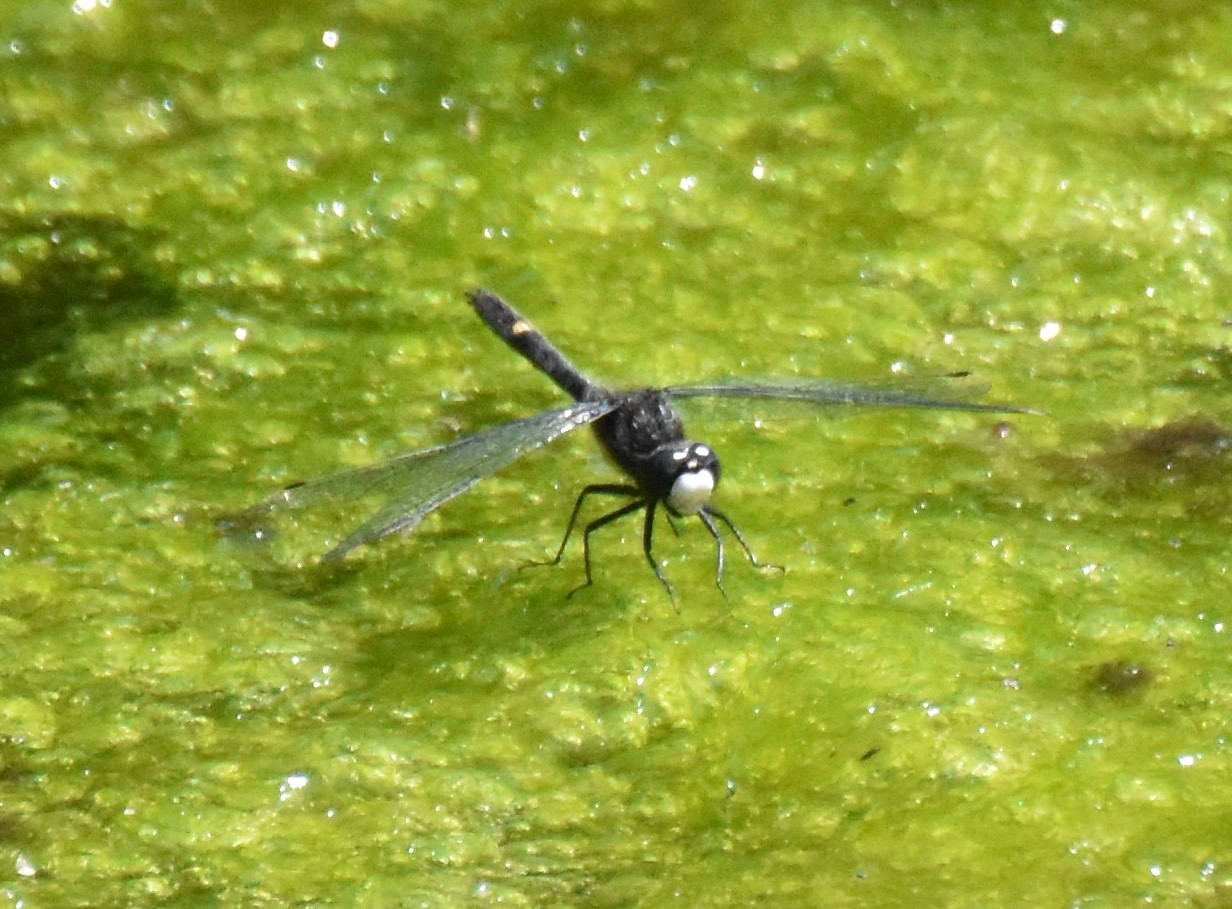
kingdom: Animalia
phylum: Arthropoda
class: Insecta
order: Odonata
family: Libellulidae
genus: Leucorrhinia
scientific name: Leucorrhinia intacta
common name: Dot-tailed whiteface
